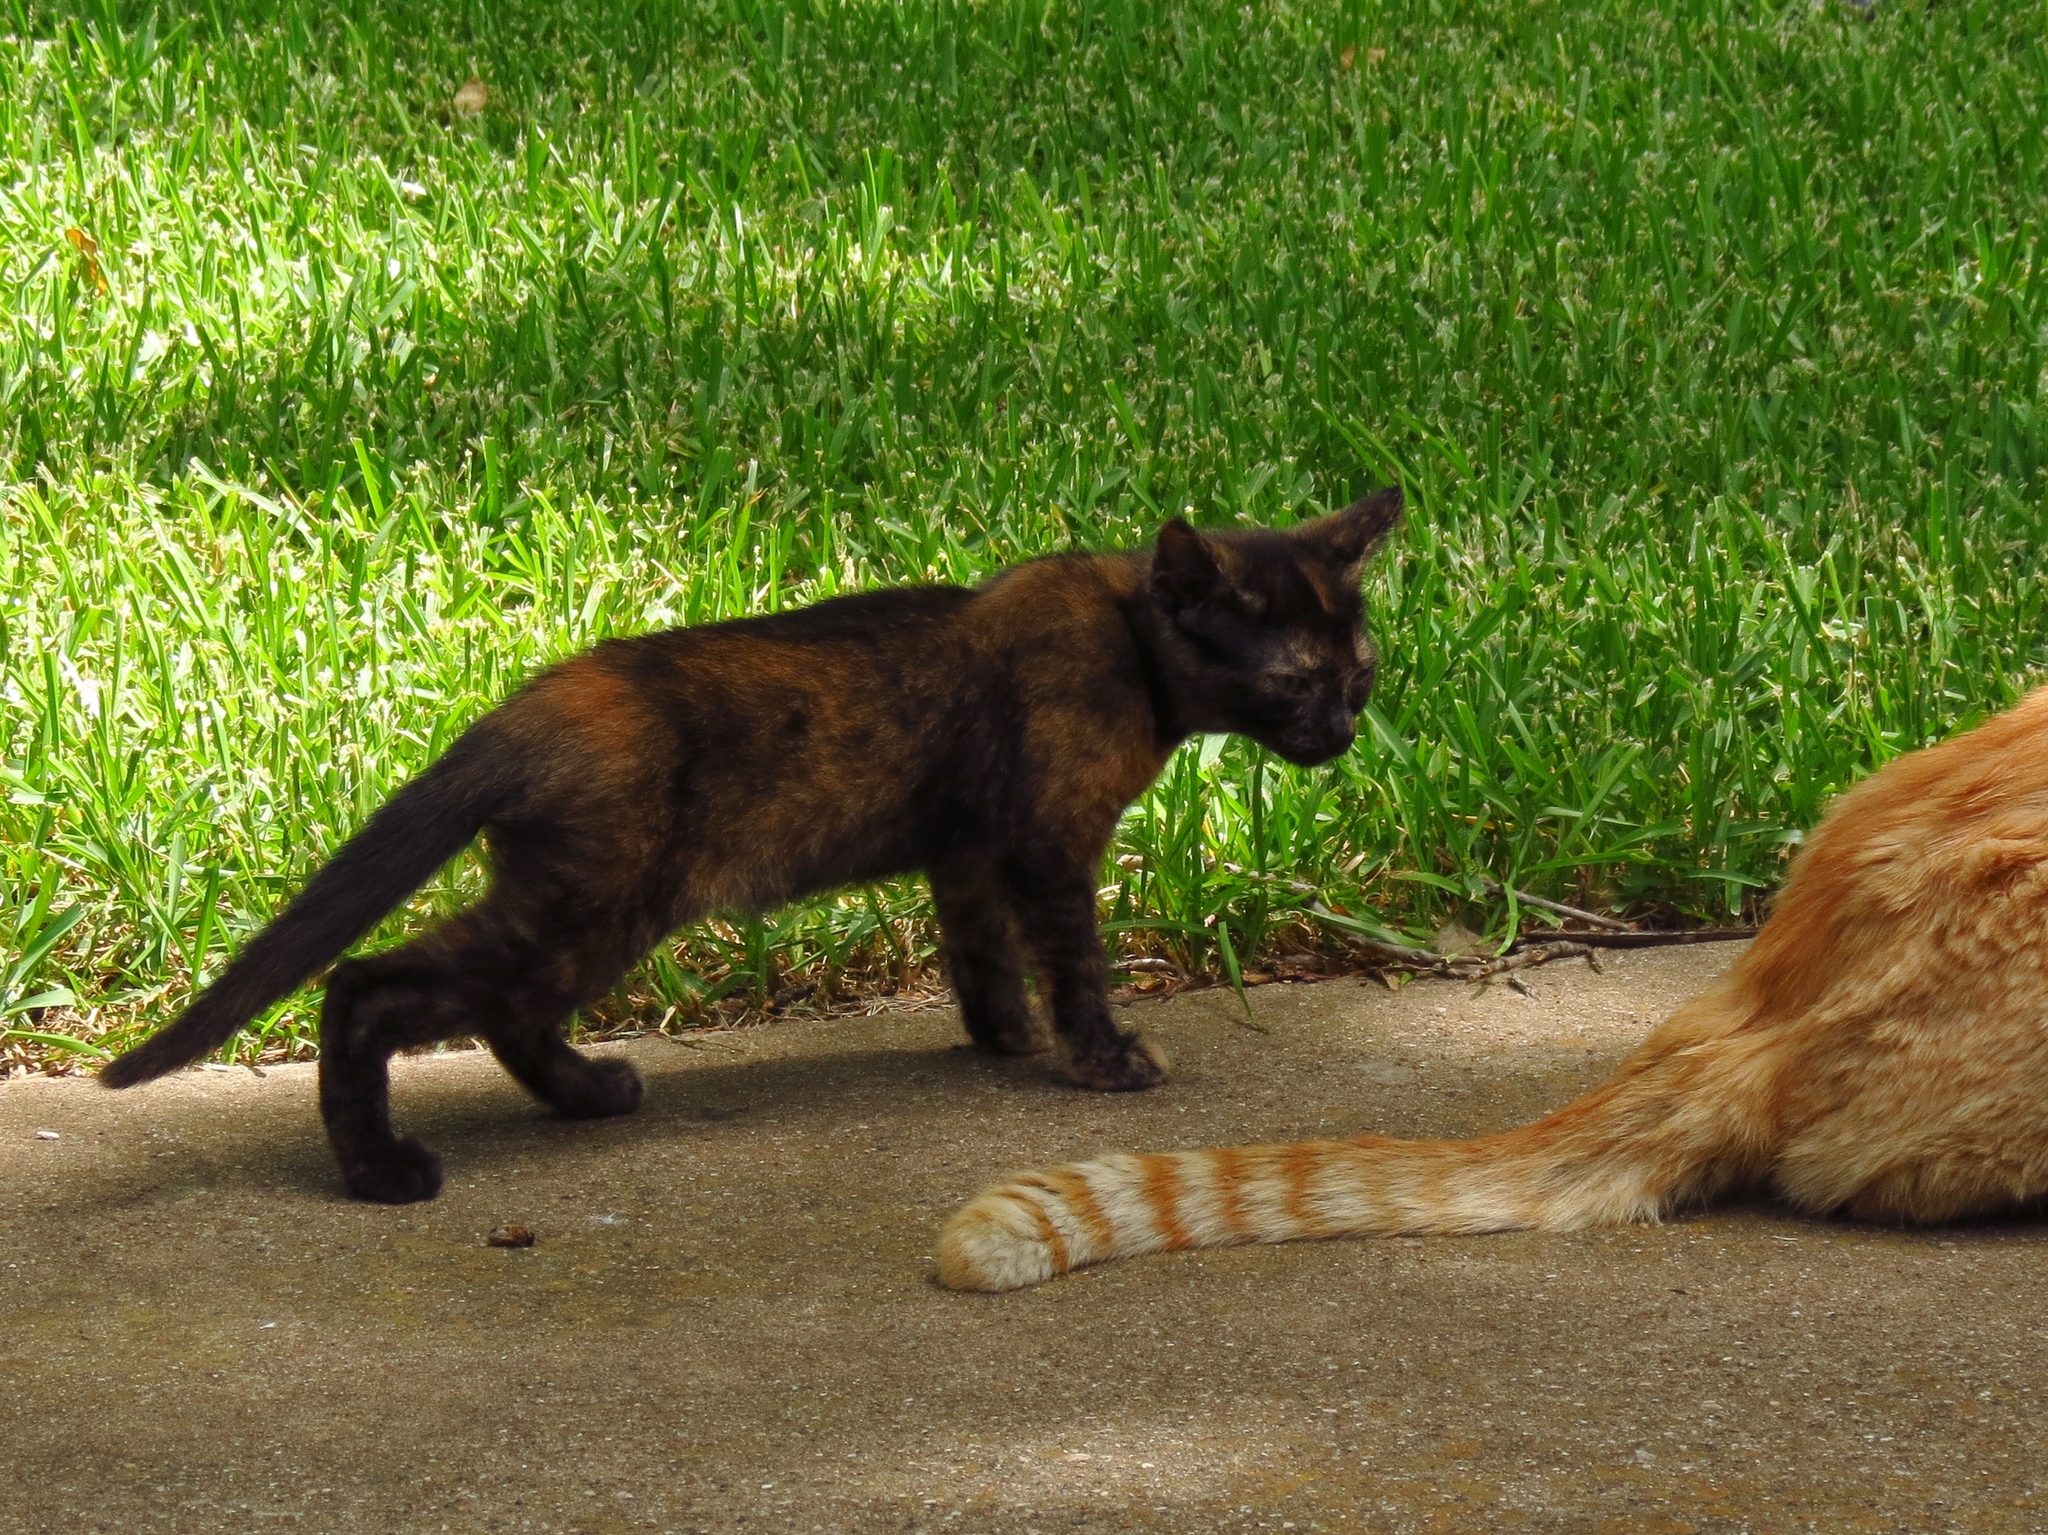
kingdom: Animalia
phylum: Chordata
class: Mammalia
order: Carnivora
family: Felidae
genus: Felis
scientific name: Felis catus
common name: Domestic cat
